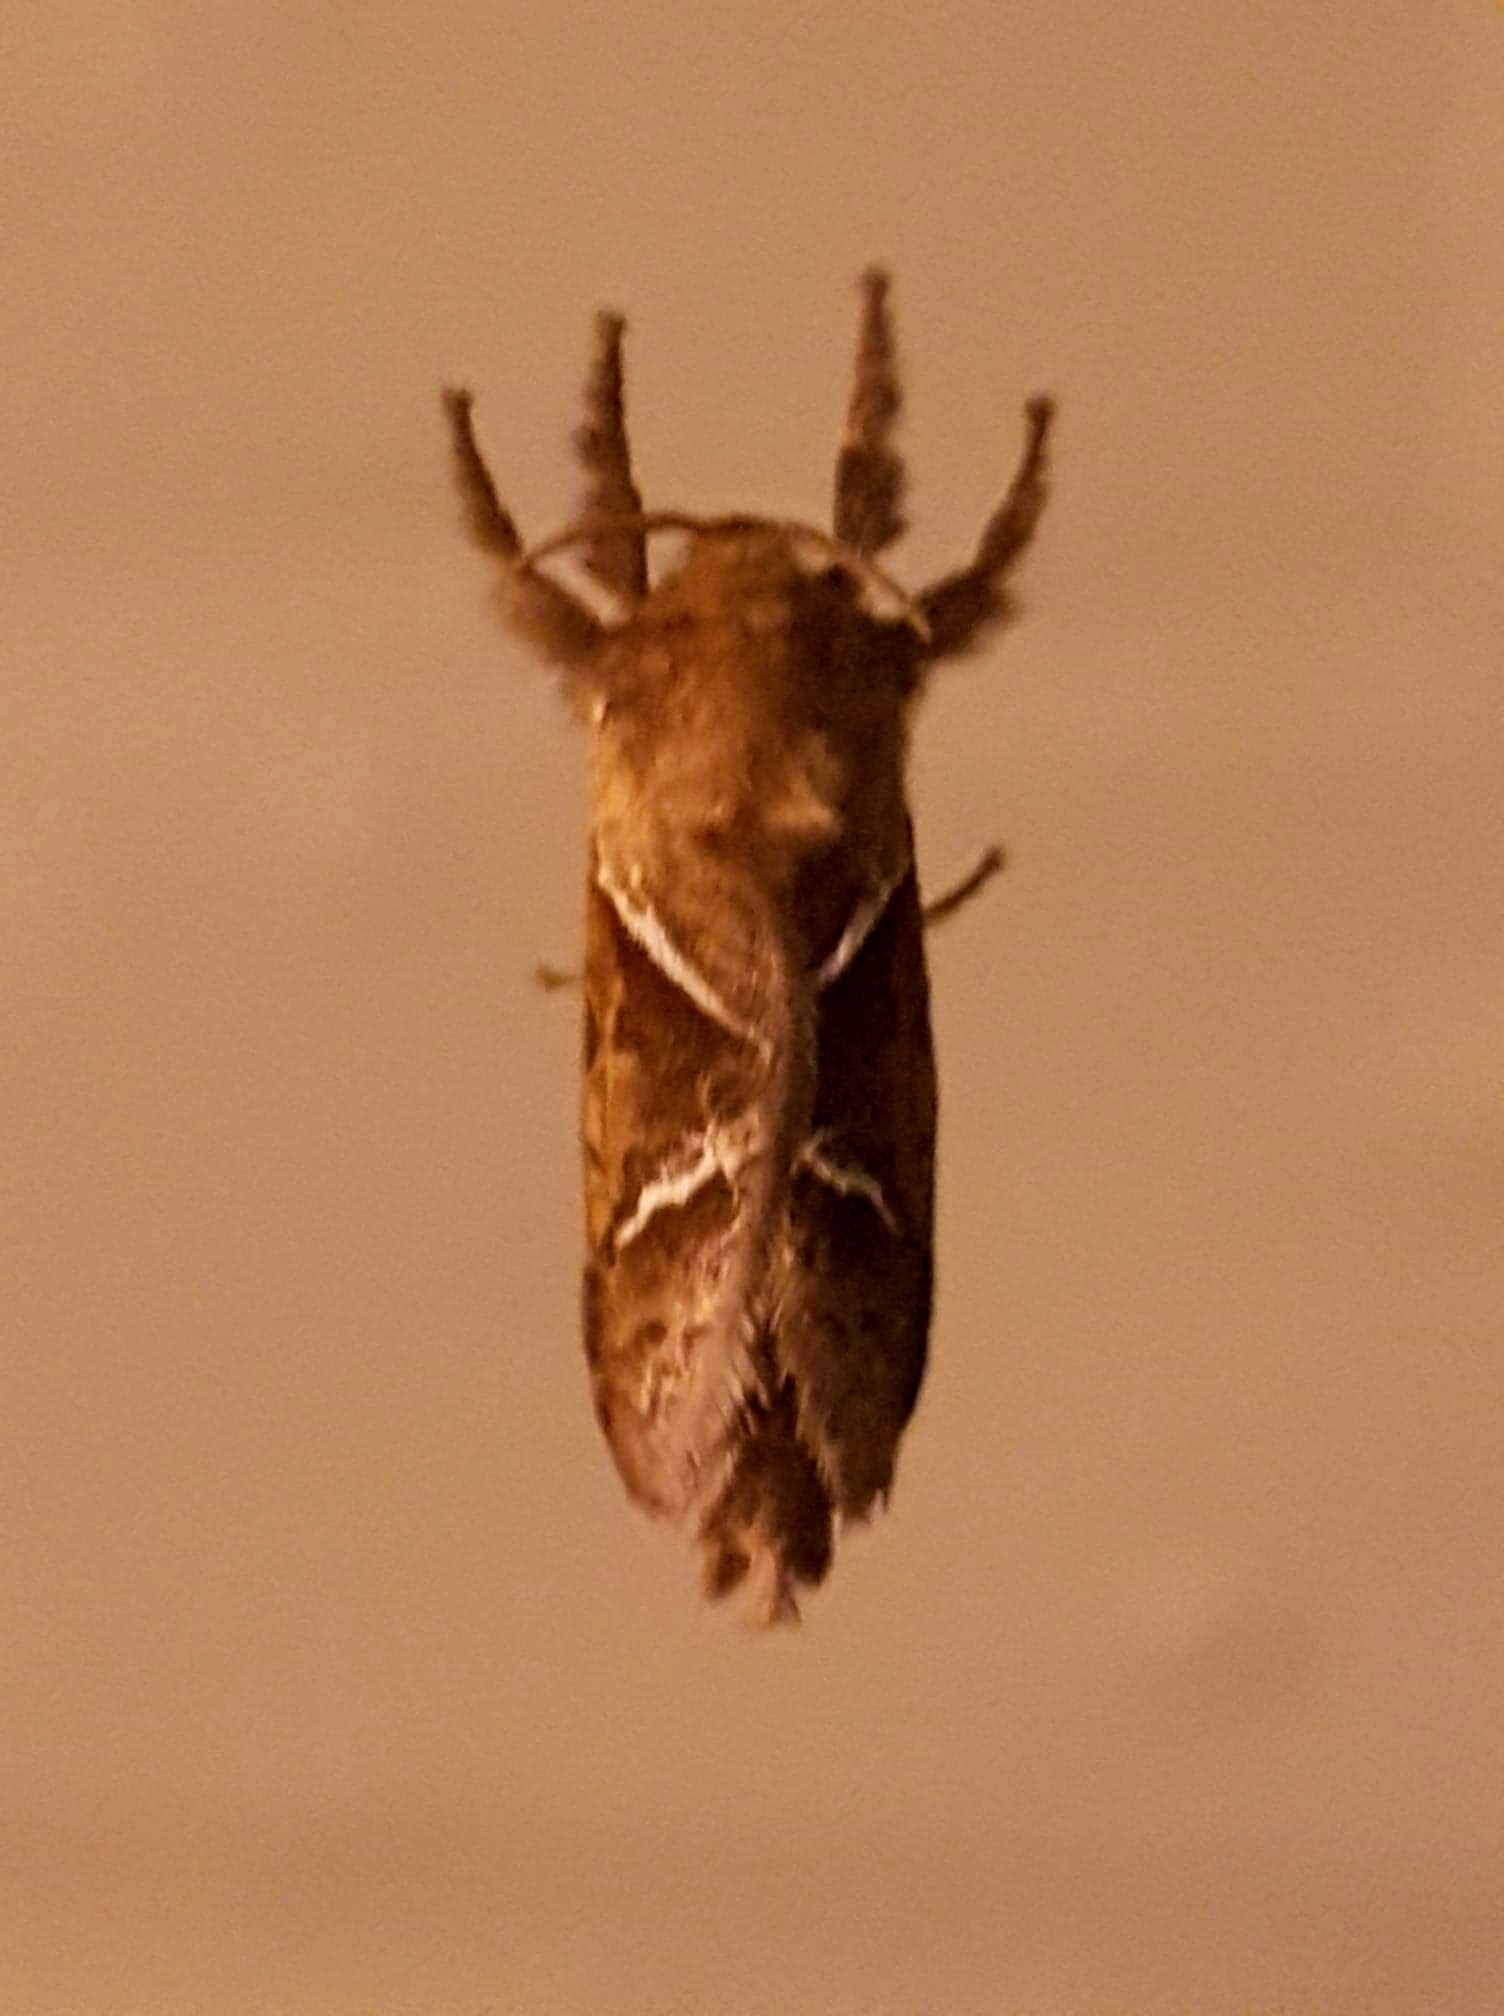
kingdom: Animalia
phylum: Arthropoda
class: Insecta
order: Lepidoptera
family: Hepialidae
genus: Triodia
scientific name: Triodia sylvina
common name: Orange swift
